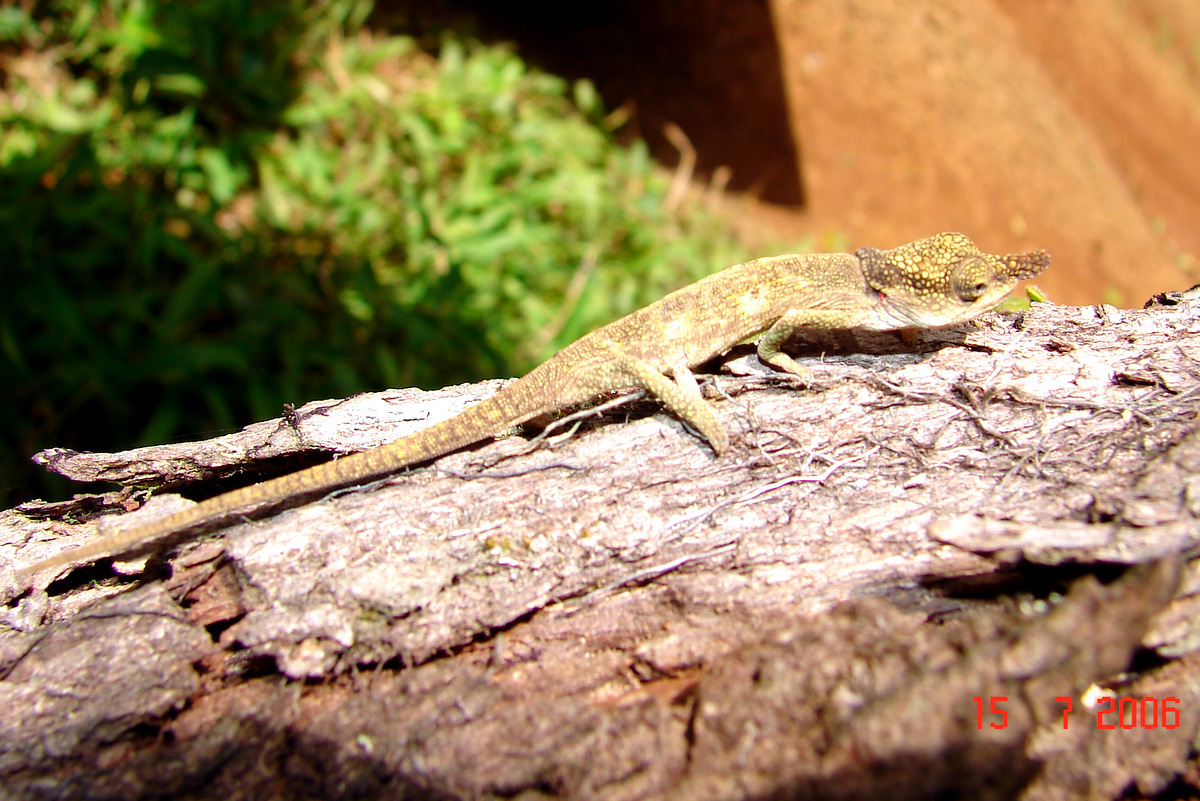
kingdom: Animalia
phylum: Chordata
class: Squamata
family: Chamaeleonidae
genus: Calumma
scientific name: Calumma linotum
